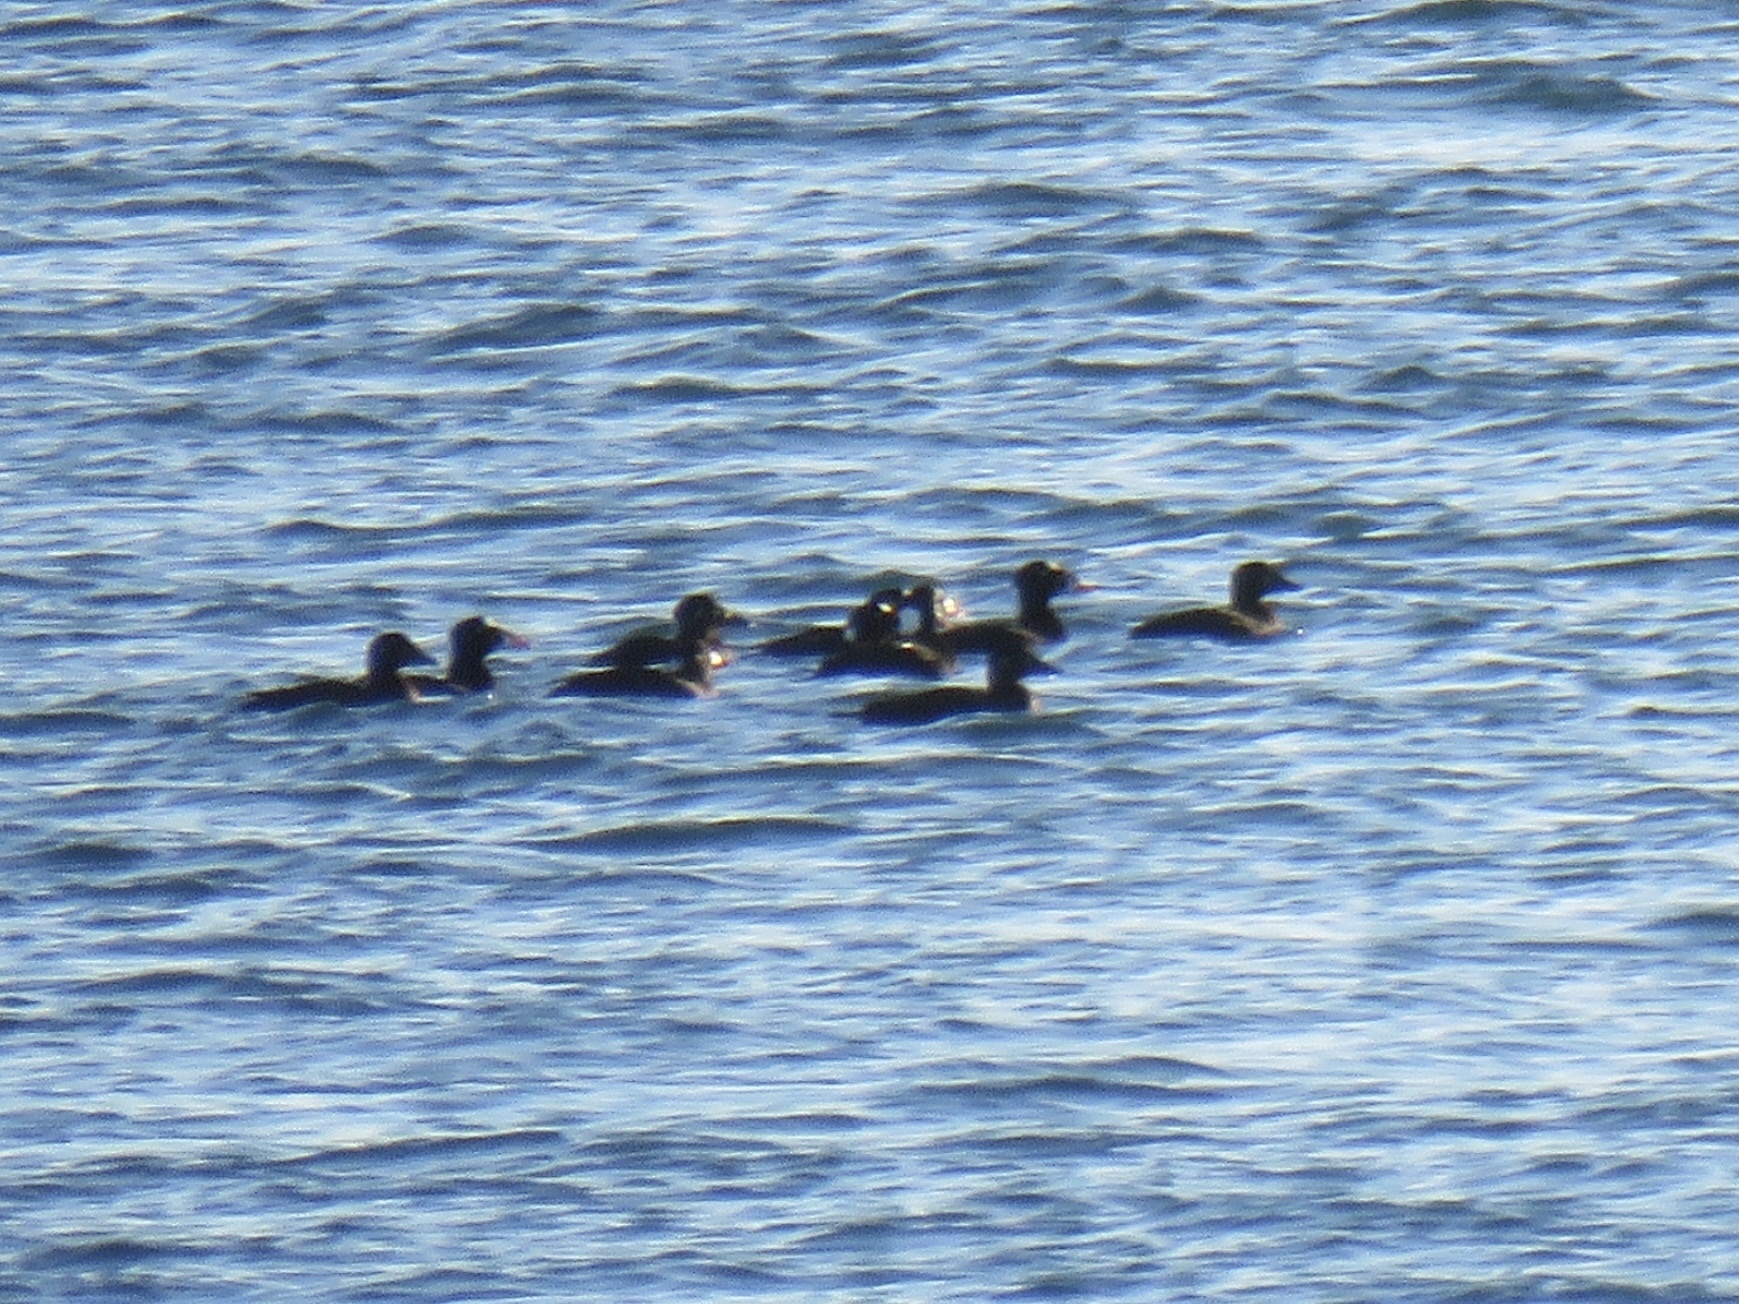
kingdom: Animalia
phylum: Chordata
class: Aves
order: Anseriformes
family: Anatidae
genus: Melanitta
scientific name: Melanitta perspicillata
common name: Surf scoter
